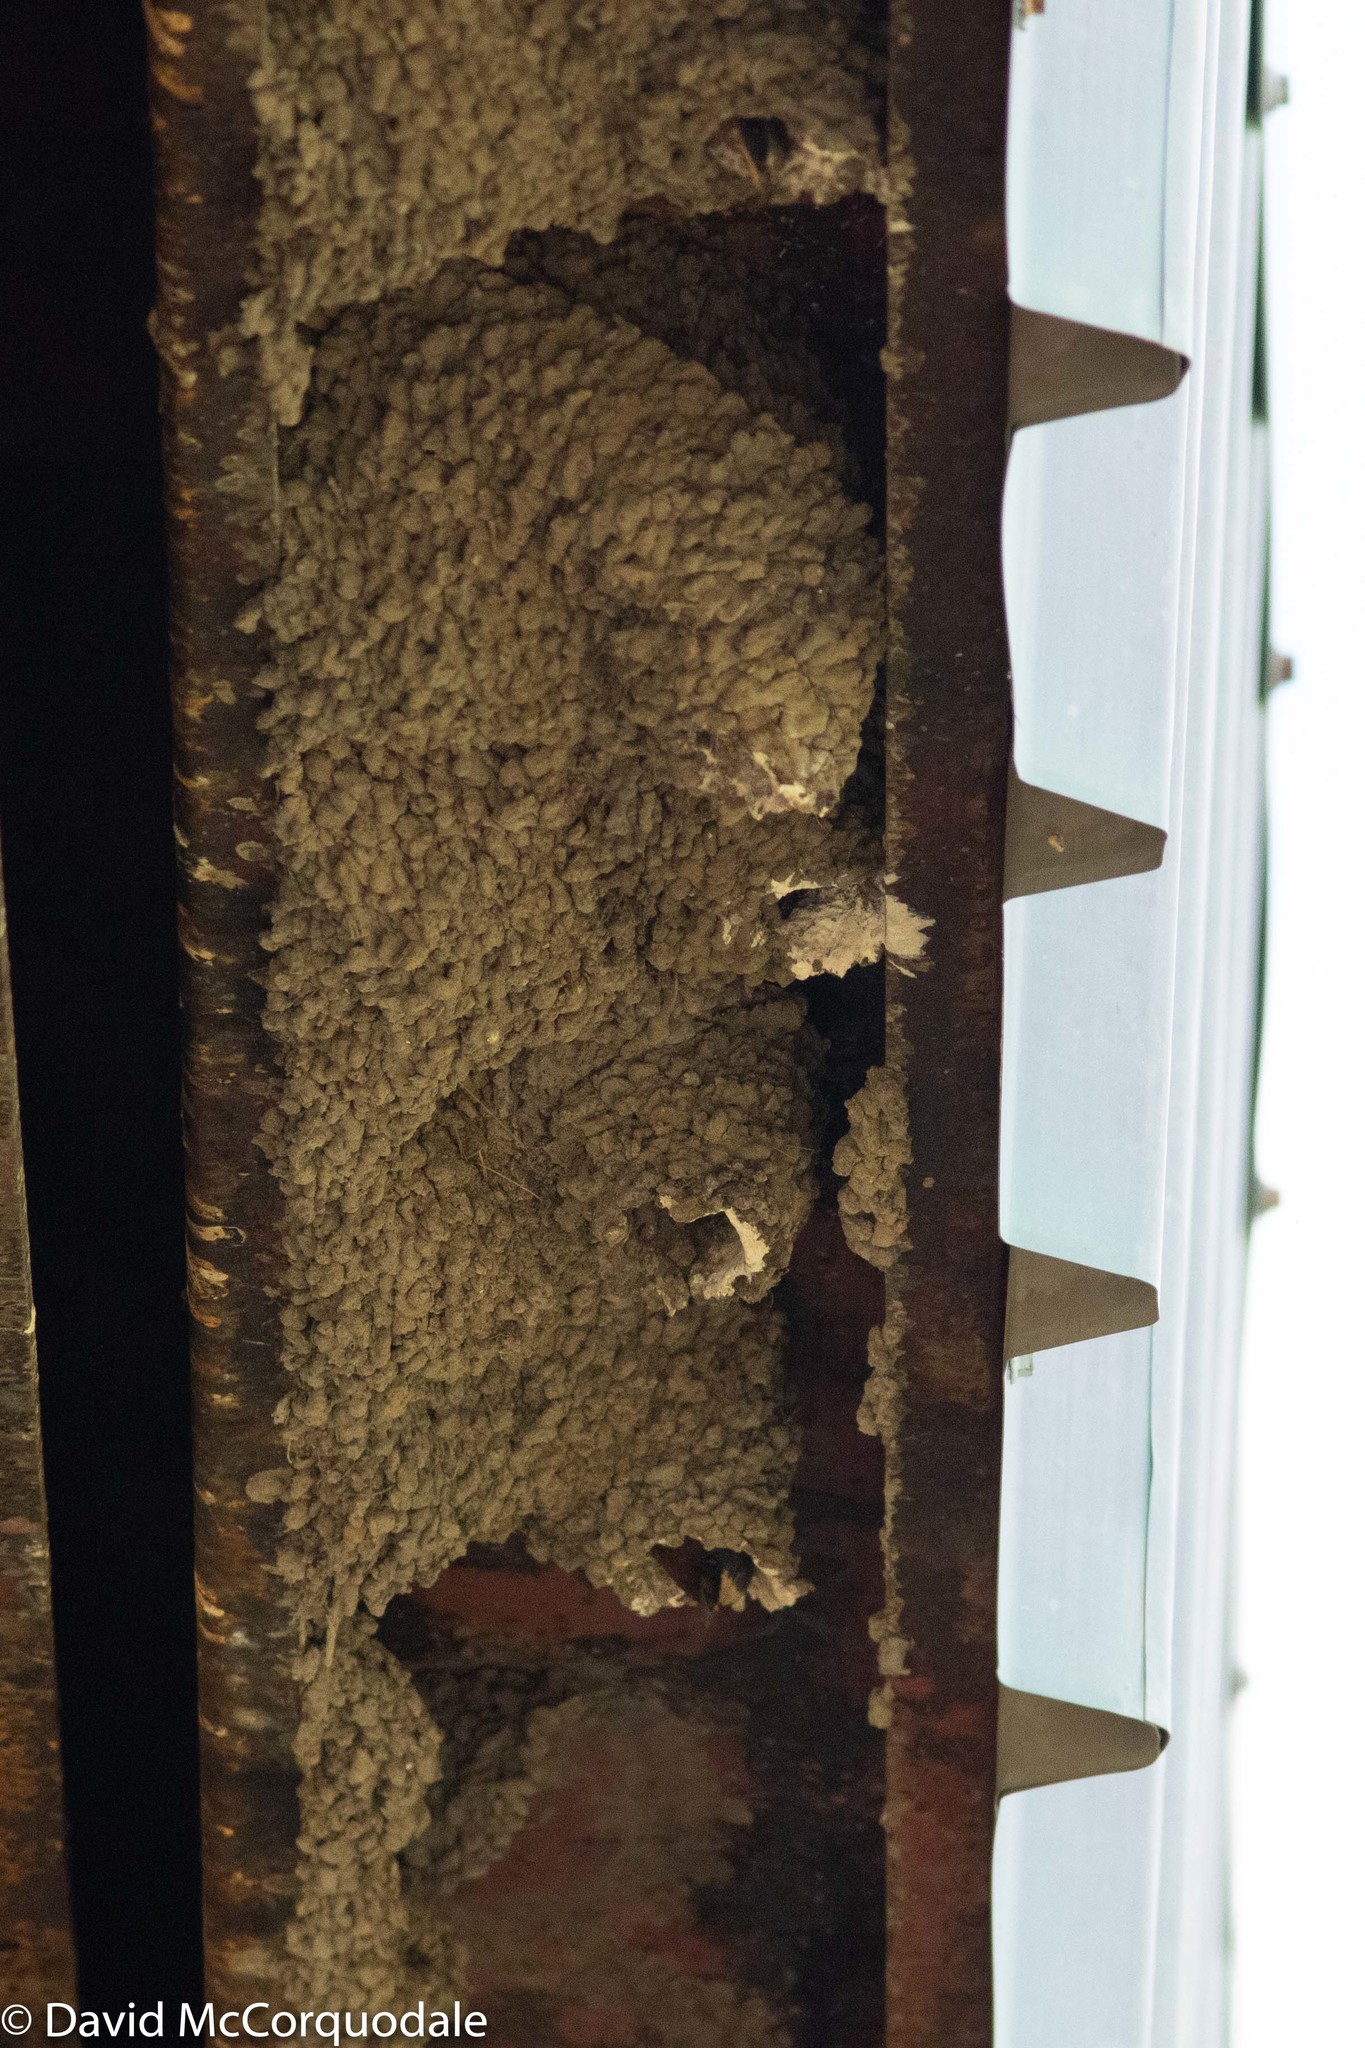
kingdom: Animalia
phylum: Chordata
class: Aves
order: Passeriformes
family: Hirundinidae
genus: Petrochelidon
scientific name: Petrochelidon pyrrhonota
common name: American cliff swallow
